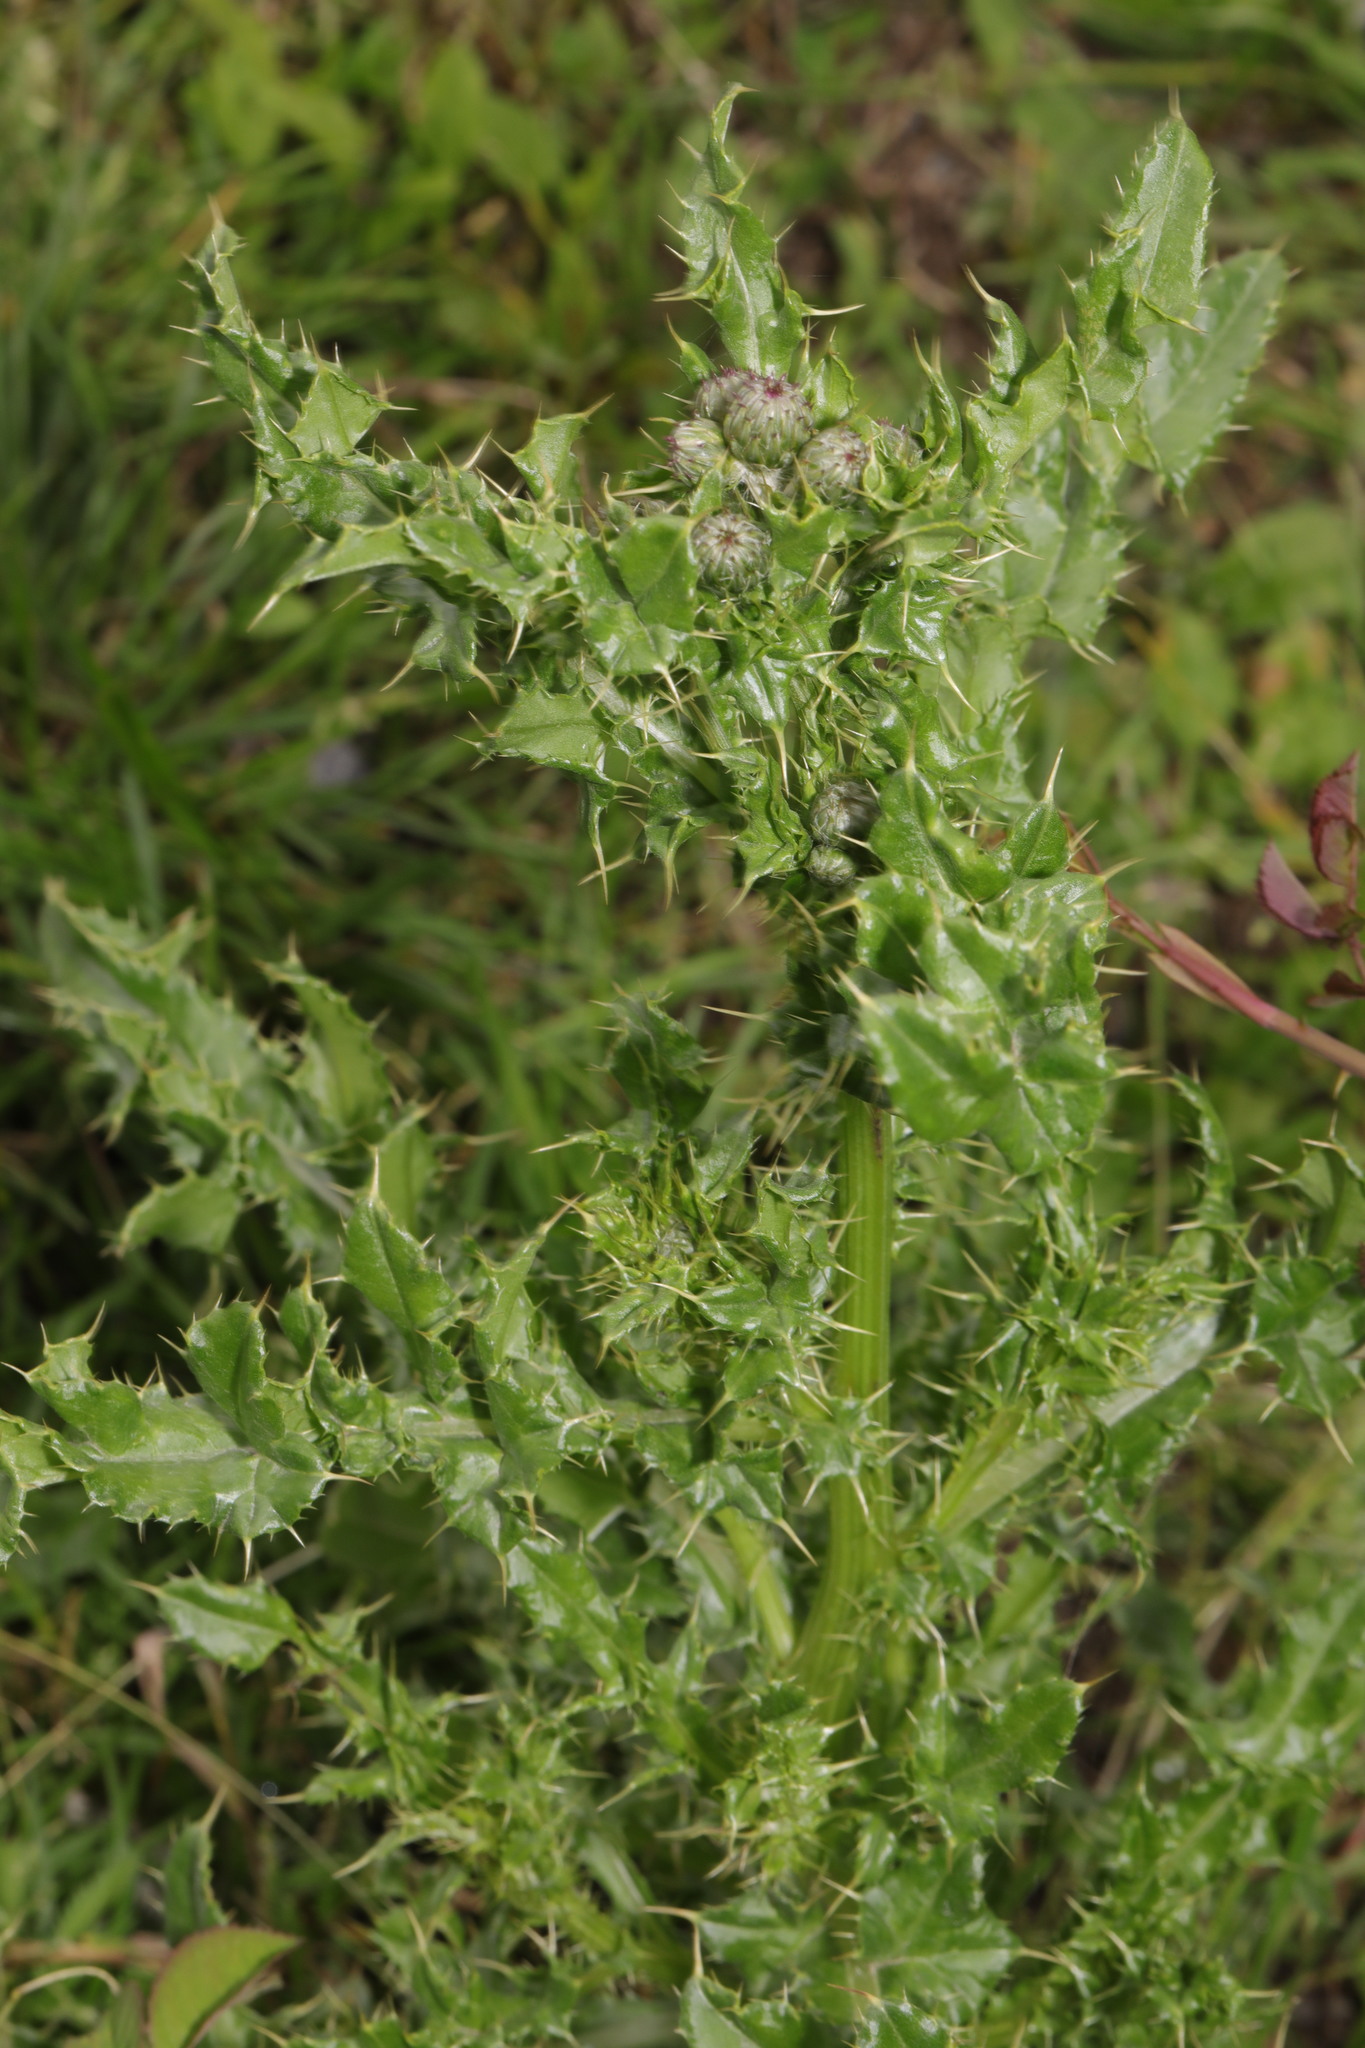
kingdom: Plantae
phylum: Tracheophyta
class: Magnoliopsida
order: Asterales
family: Asteraceae
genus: Cirsium
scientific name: Cirsium arvense
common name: Creeping thistle
